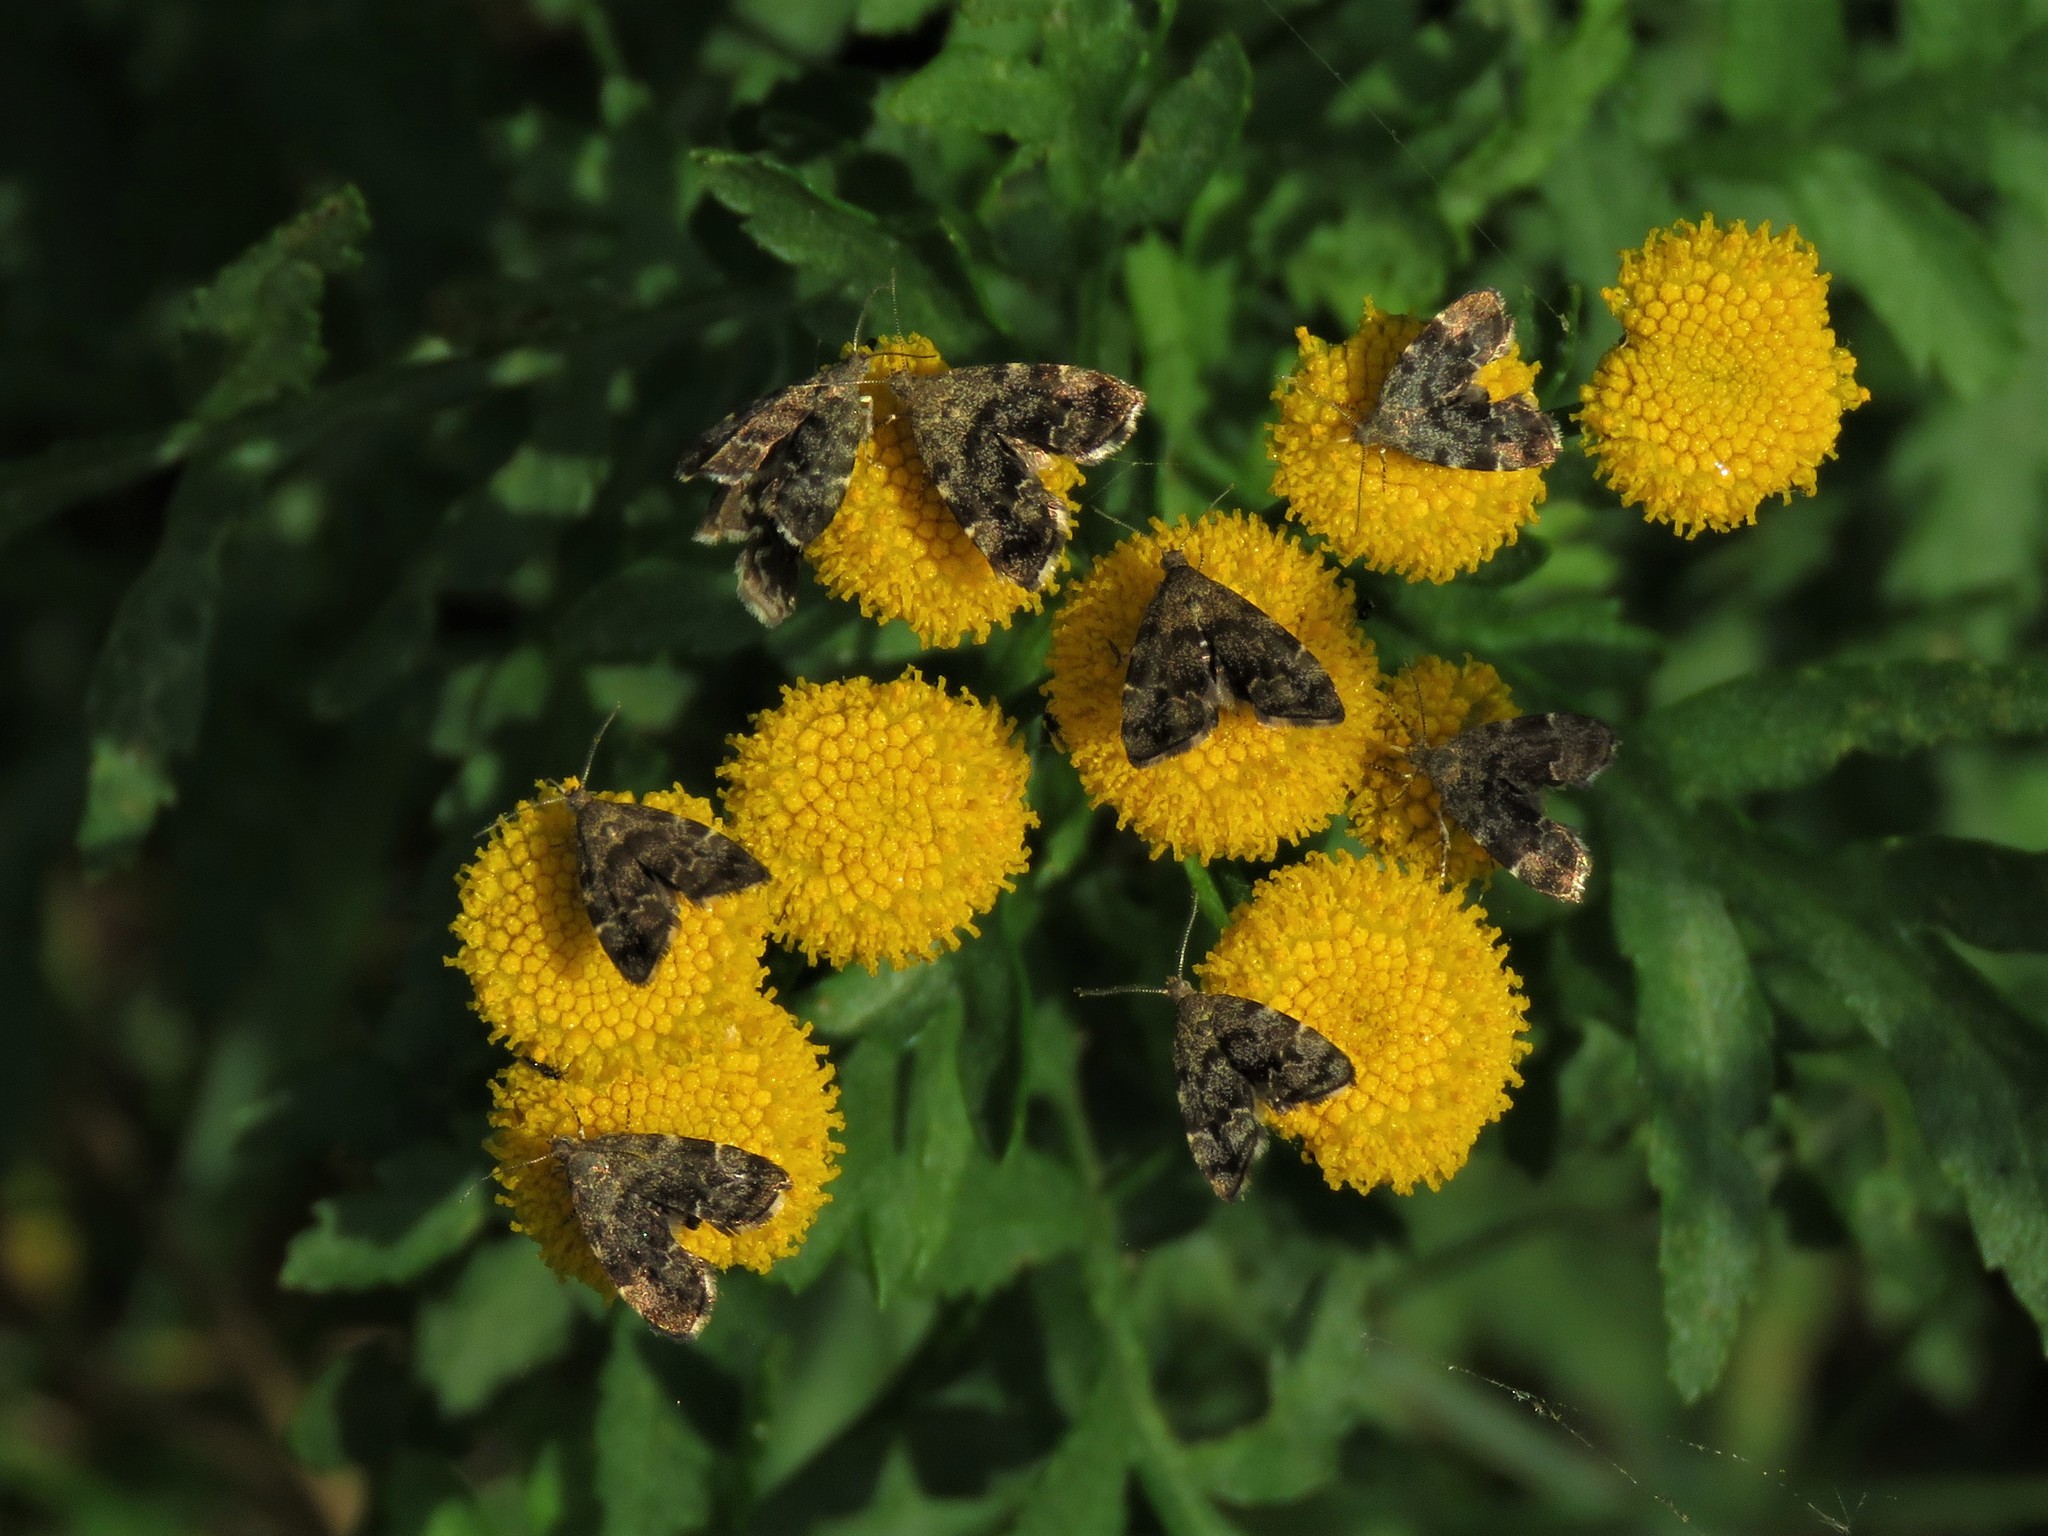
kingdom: Animalia
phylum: Arthropoda
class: Insecta
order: Lepidoptera
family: Choreutidae
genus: Anthophila
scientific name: Anthophila fabriciana
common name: Nettle-tap
